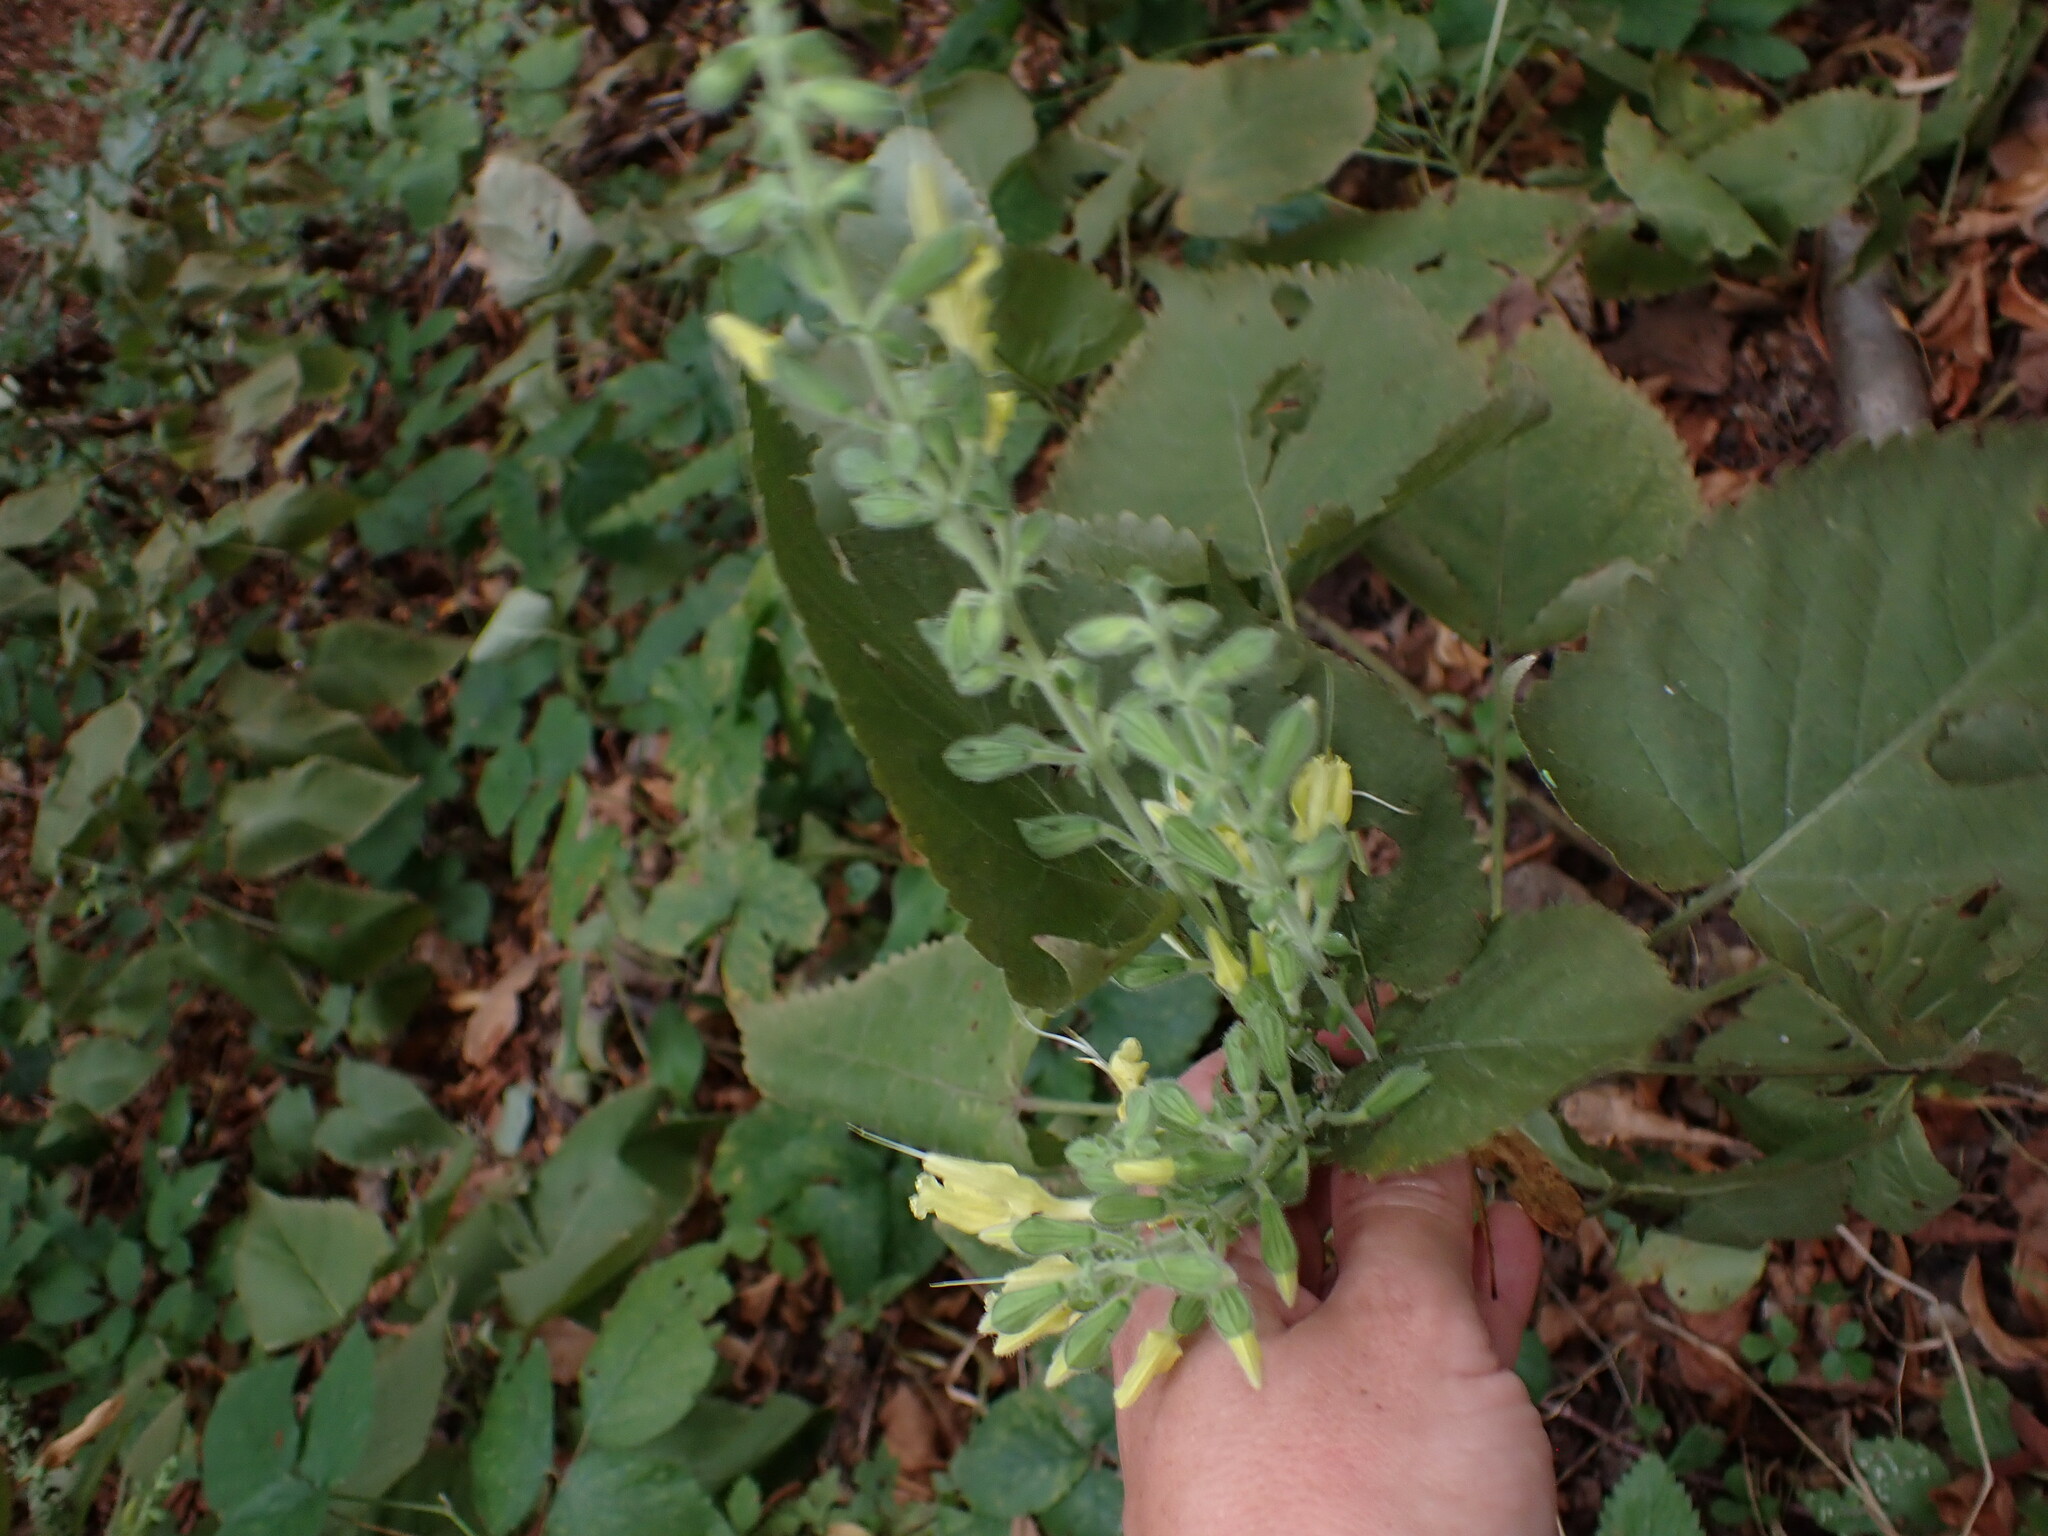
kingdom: Plantae
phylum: Tracheophyta
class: Magnoliopsida
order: Lamiales
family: Lamiaceae
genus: Salvia
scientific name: Salvia glutinosa
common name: Sticky clary
